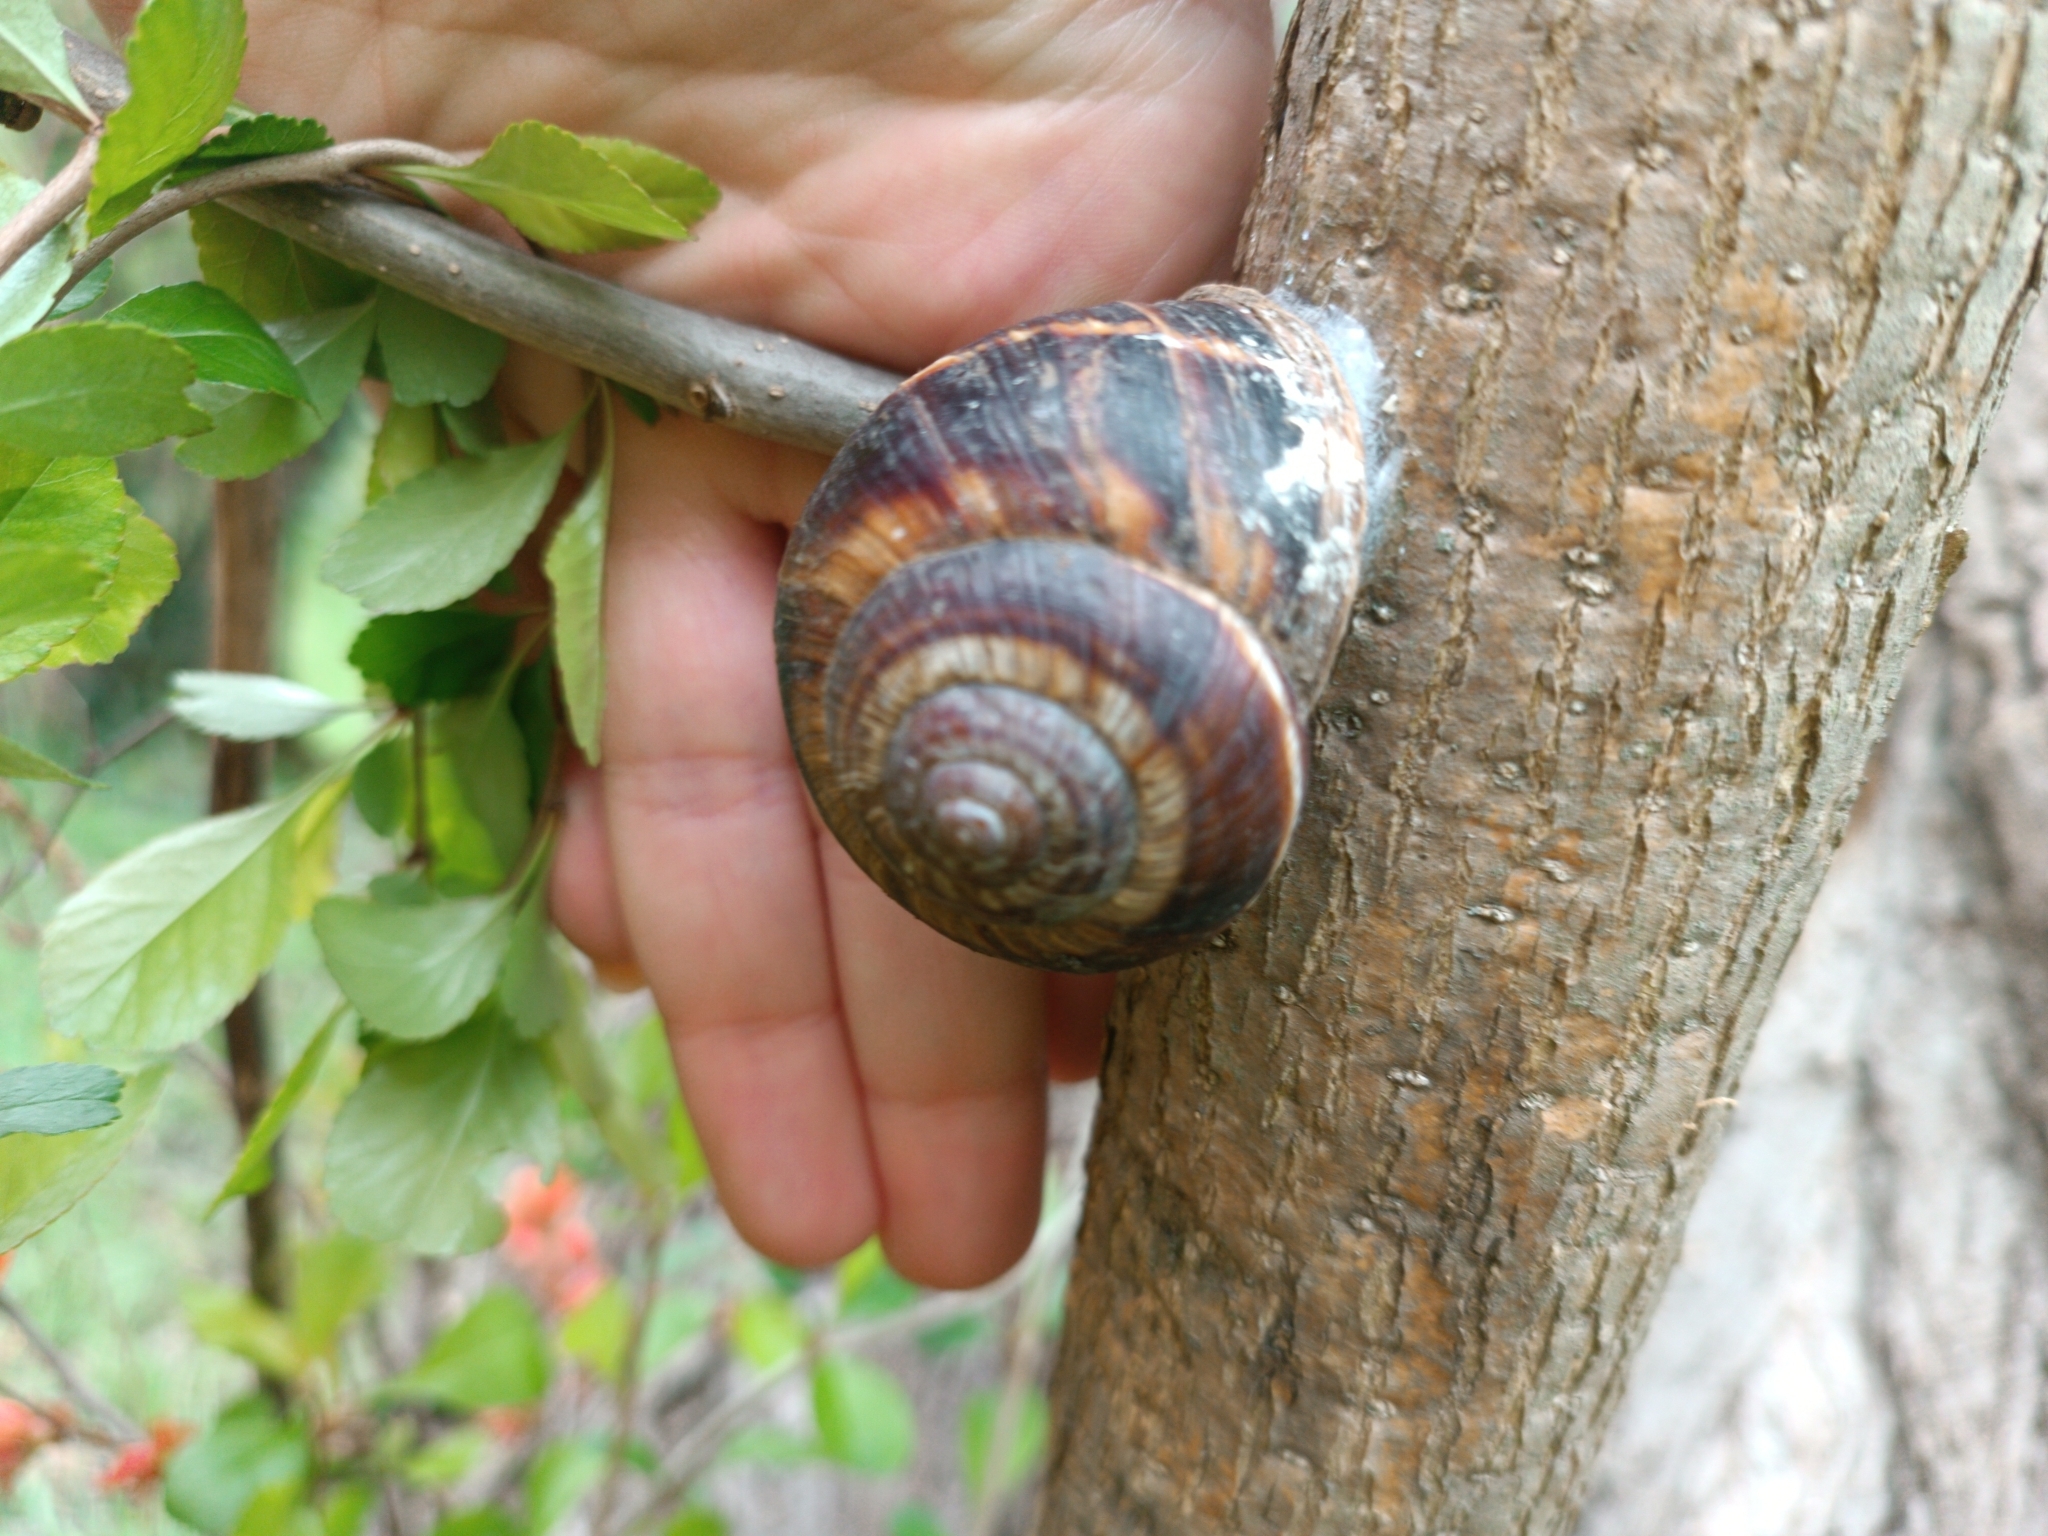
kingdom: Animalia
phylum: Mollusca
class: Gastropoda
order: Stylommatophora
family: Helicidae
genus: Helix
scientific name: Helix lucorum
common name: Turkish snail
